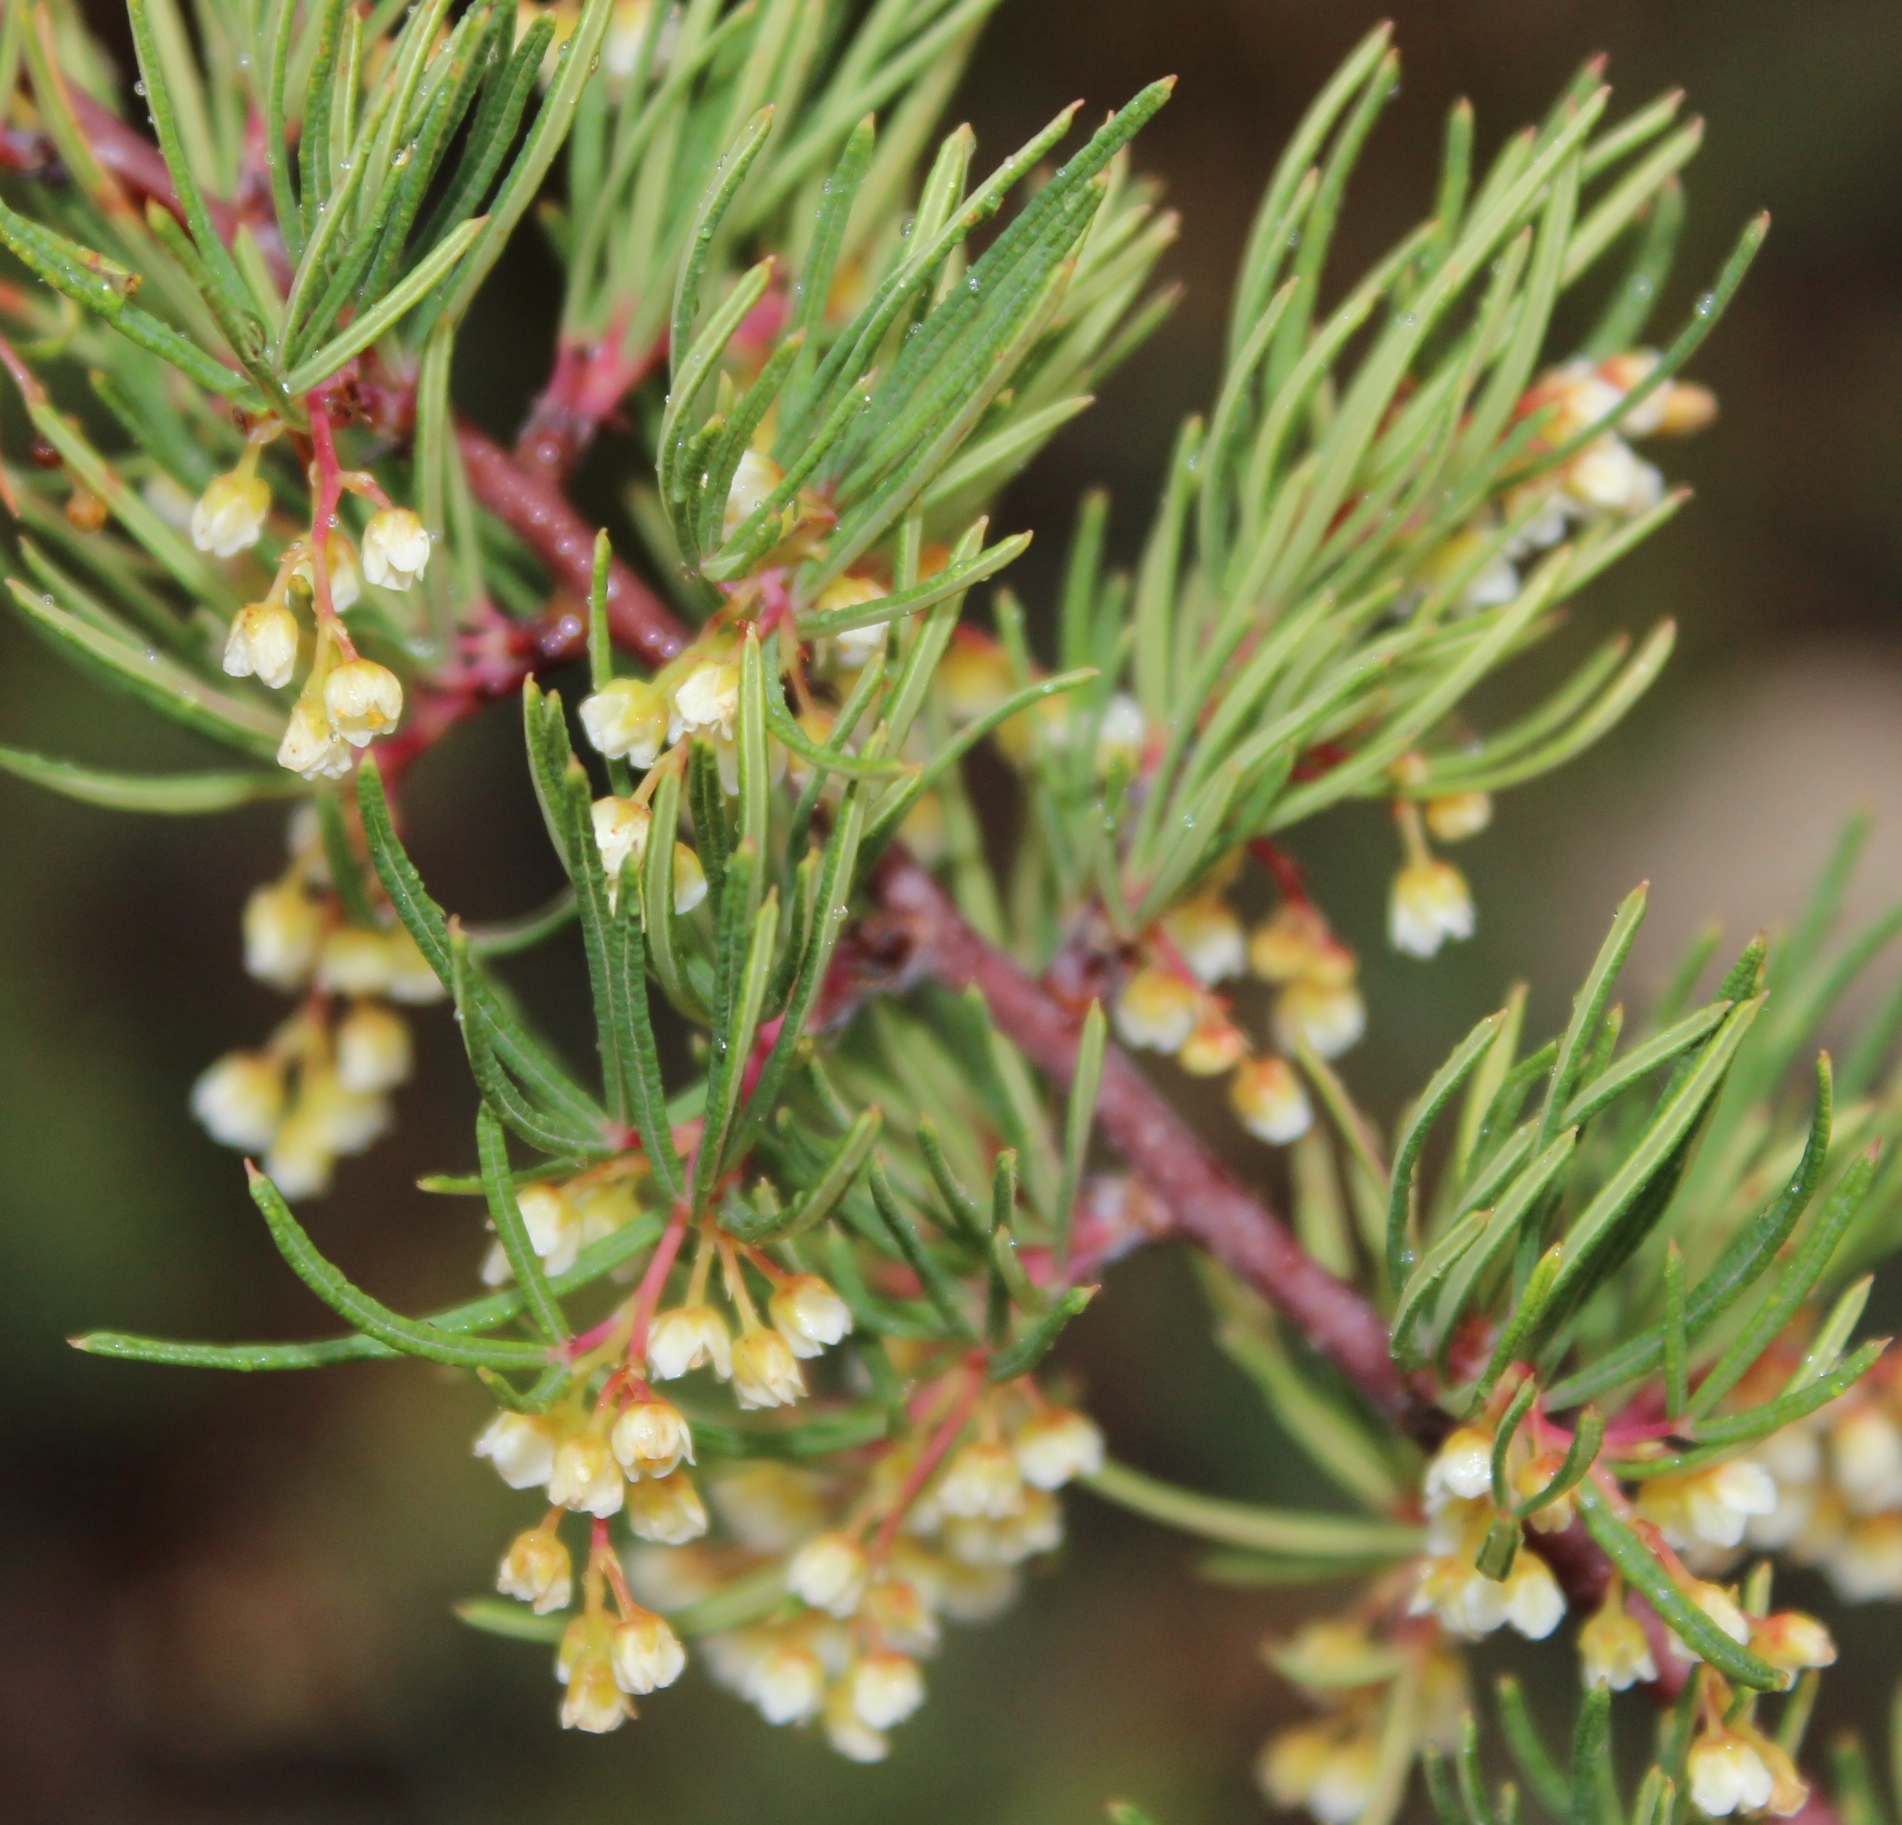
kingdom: Plantae
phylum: Tracheophyta
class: Magnoliopsida
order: Sapindales
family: Anacardiaceae
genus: Searsia
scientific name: Searsia rosmarinifolia
